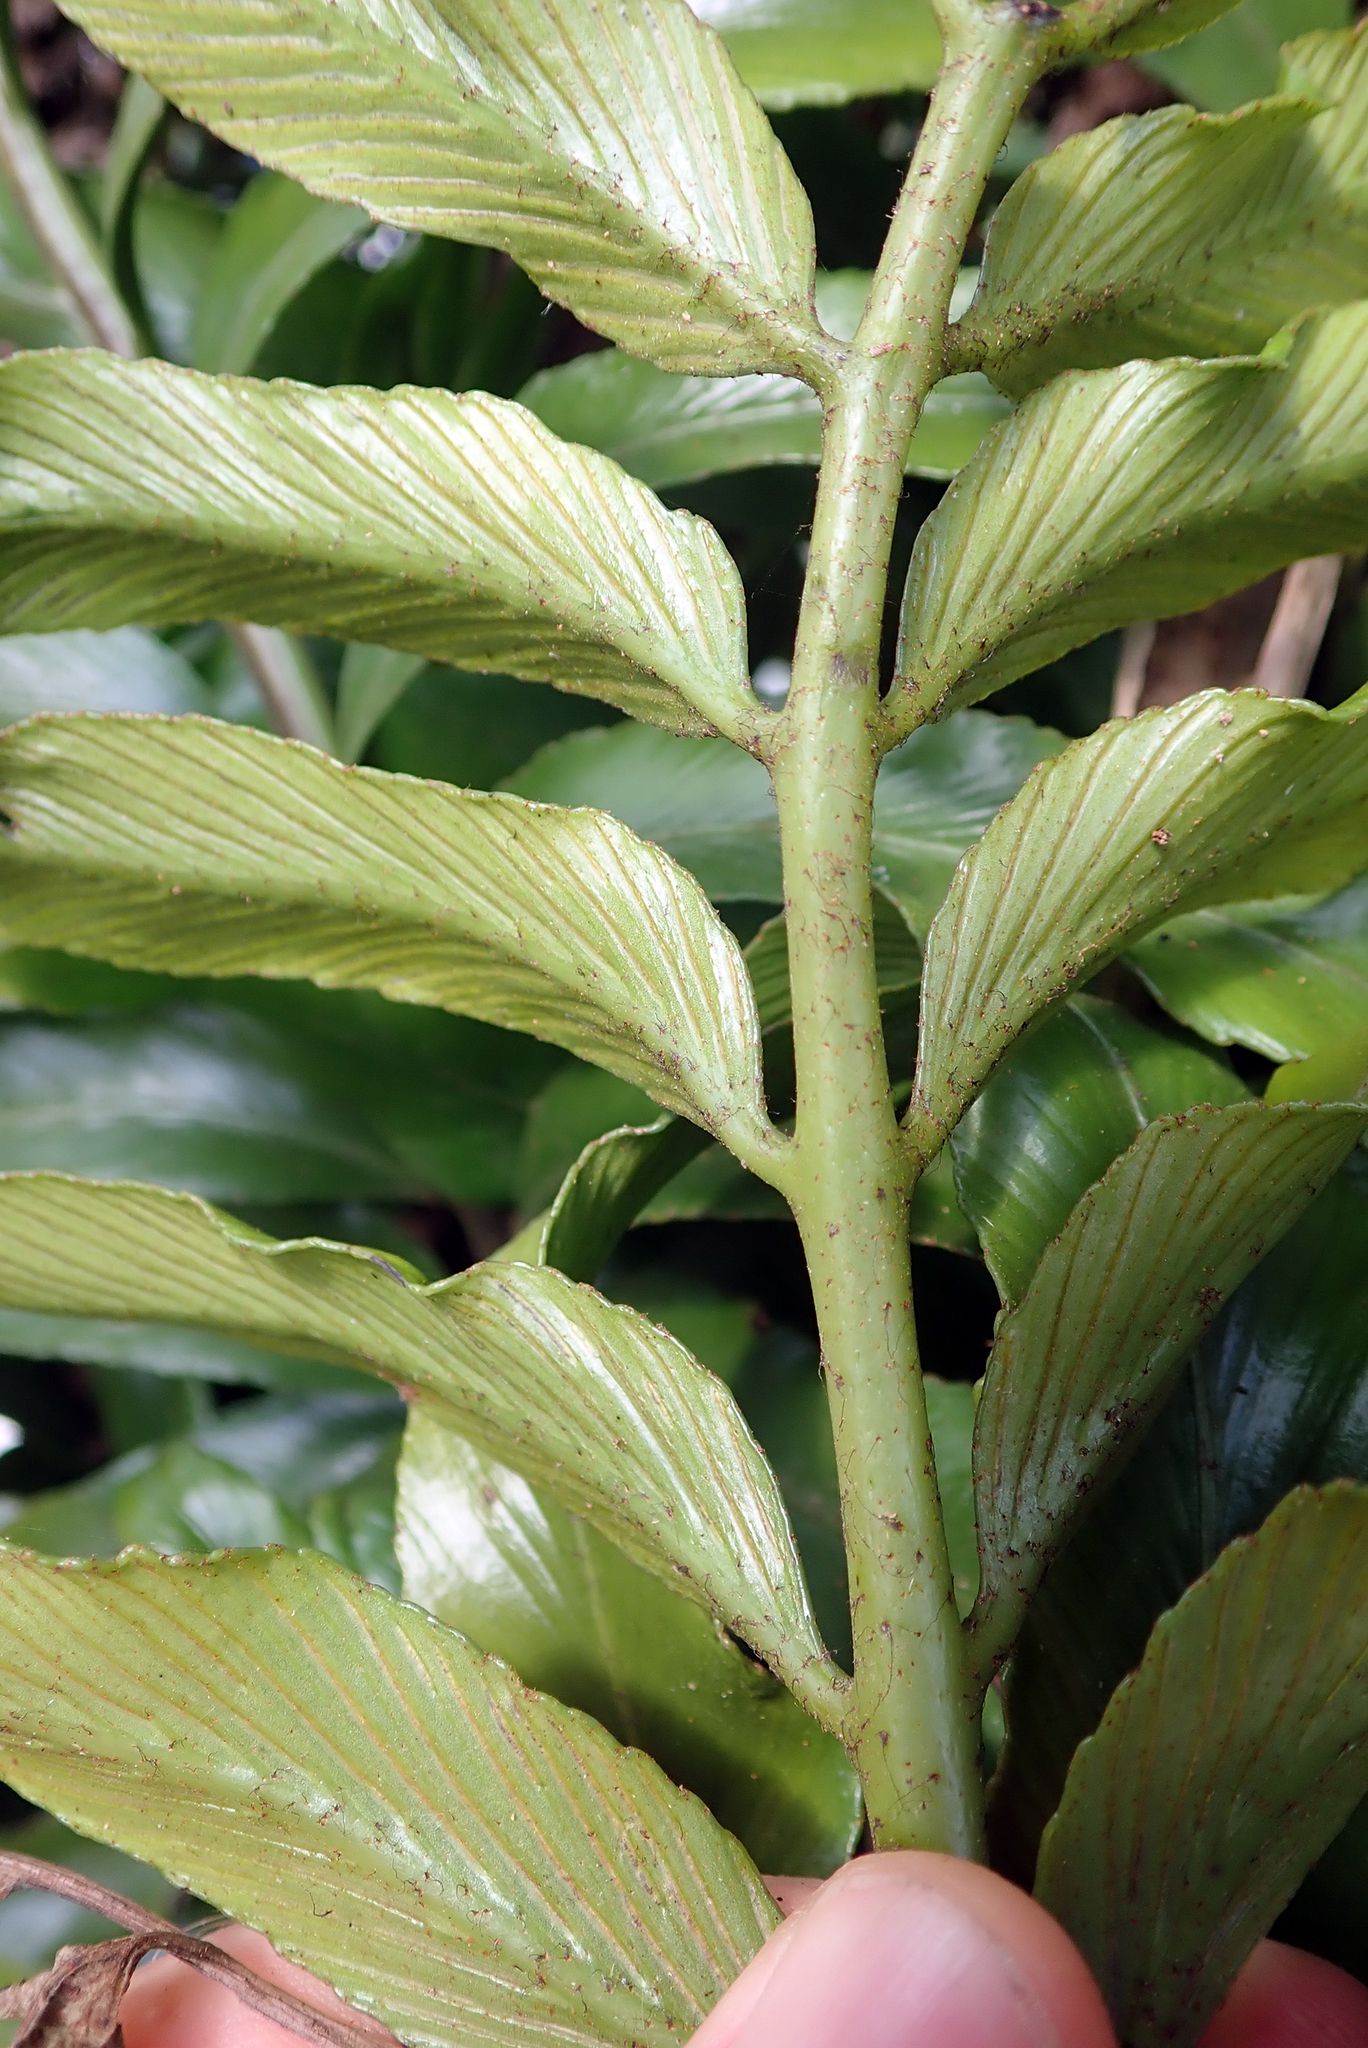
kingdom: Plantae
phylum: Tracheophyta
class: Polypodiopsida
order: Polypodiales
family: Aspleniaceae
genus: Asplenium
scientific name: Asplenium oblongifolium
